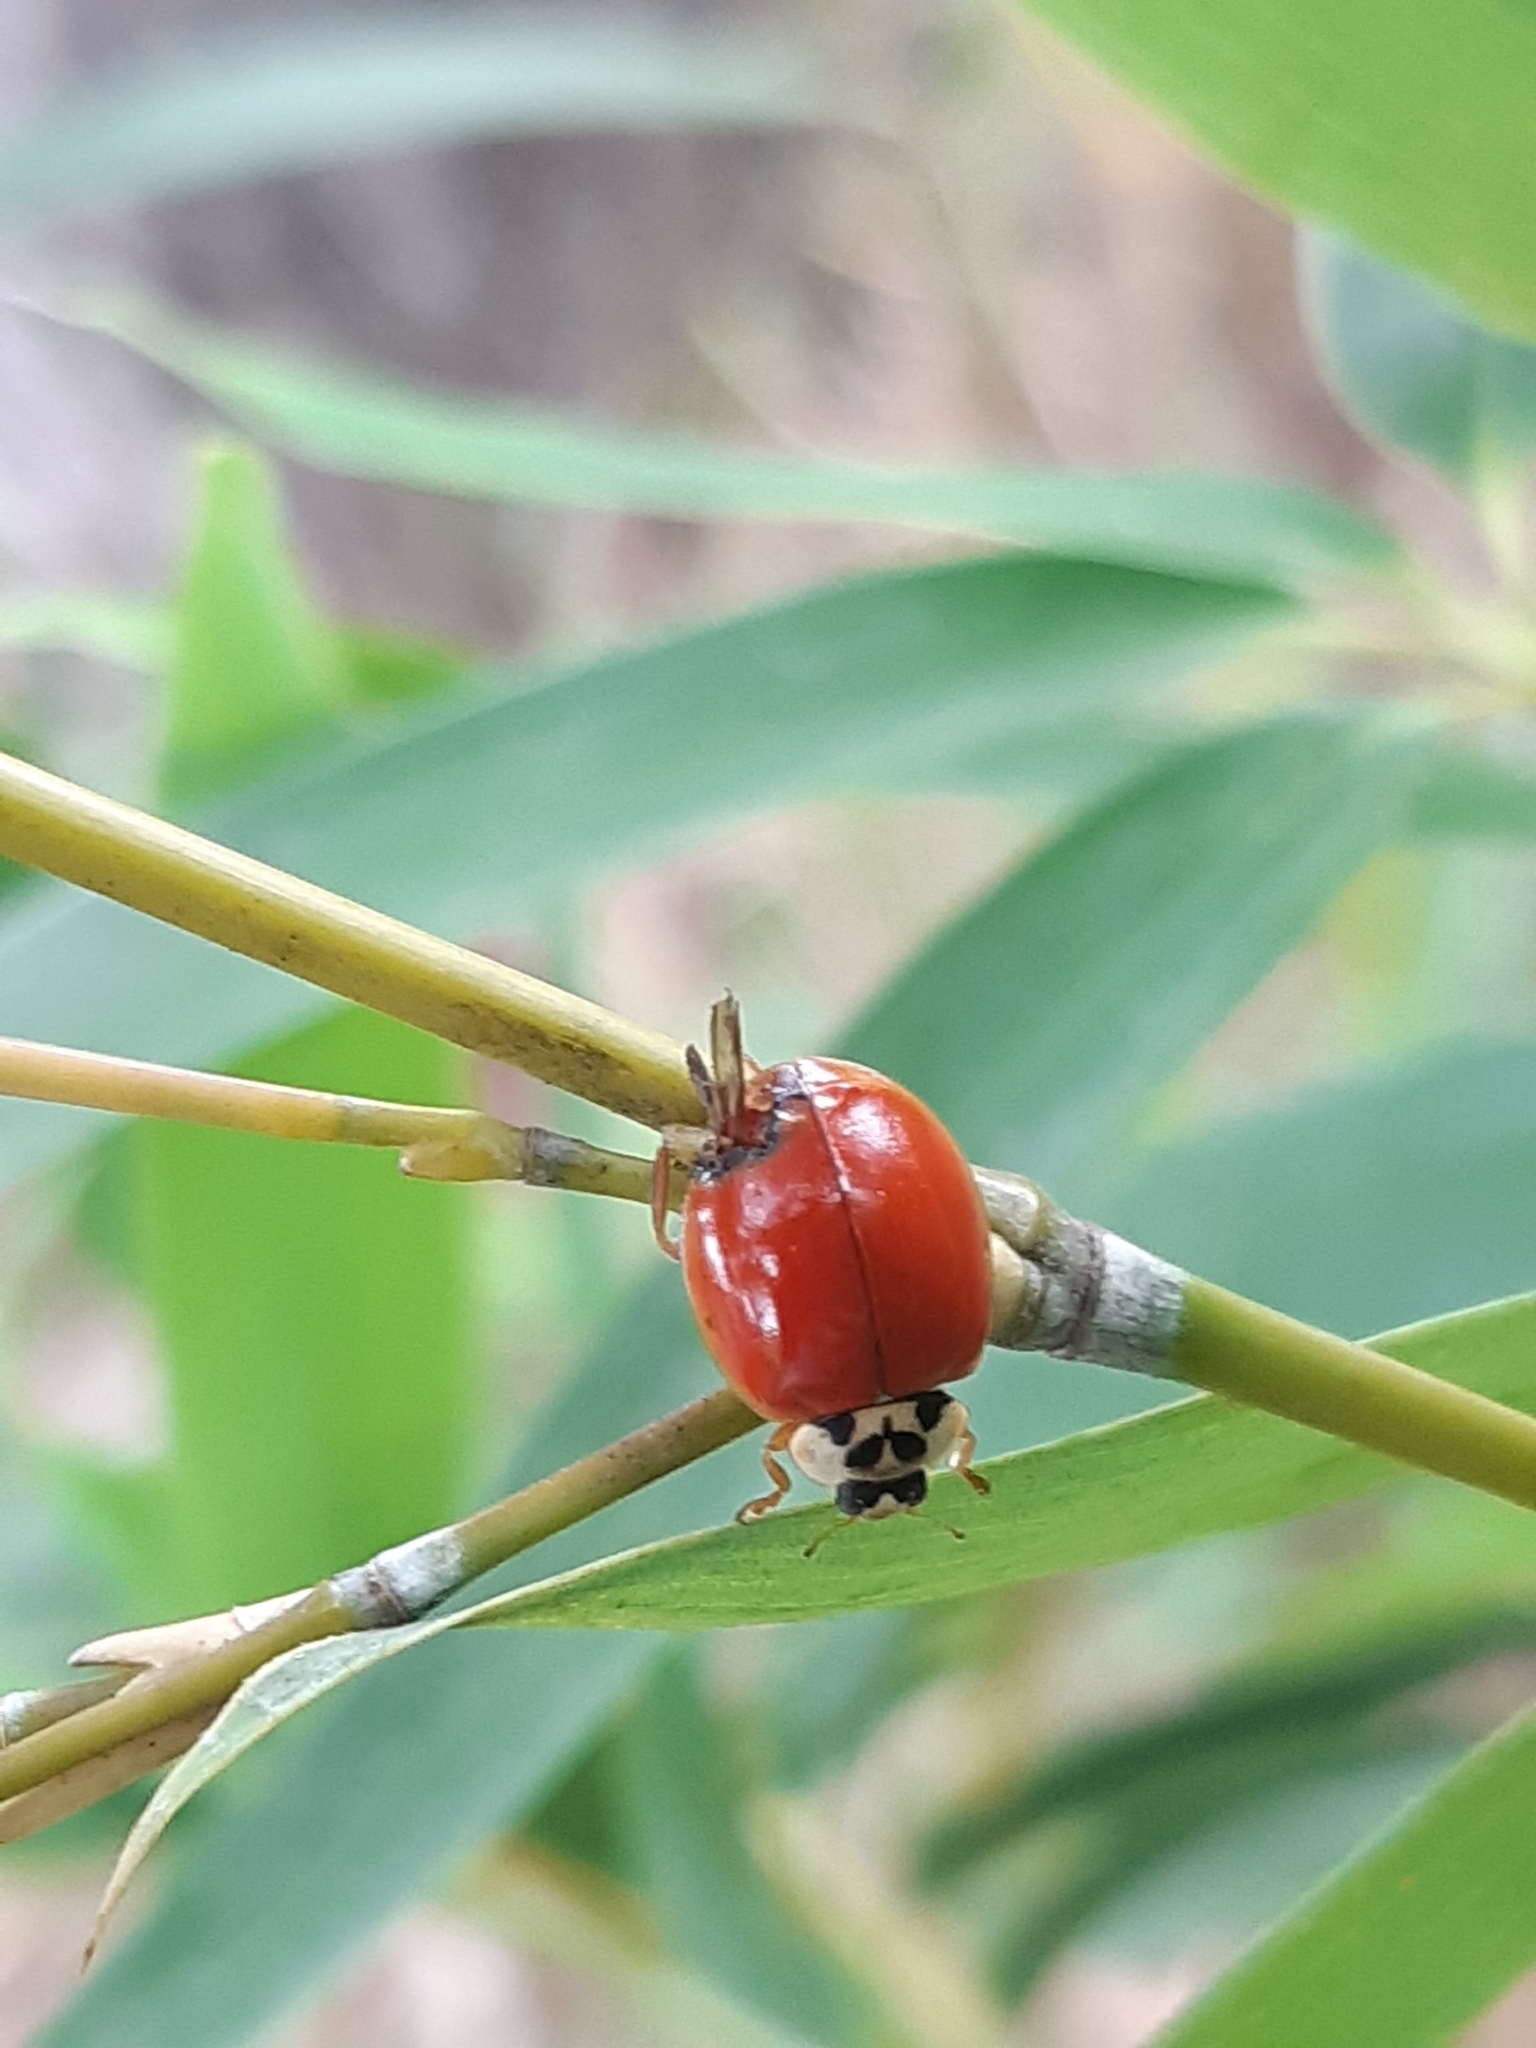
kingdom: Animalia
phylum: Arthropoda
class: Insecta
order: Coleoptera
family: Coccinellidae
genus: Harmonia
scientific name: Harmonia axyridis
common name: Harlequin ladybird
